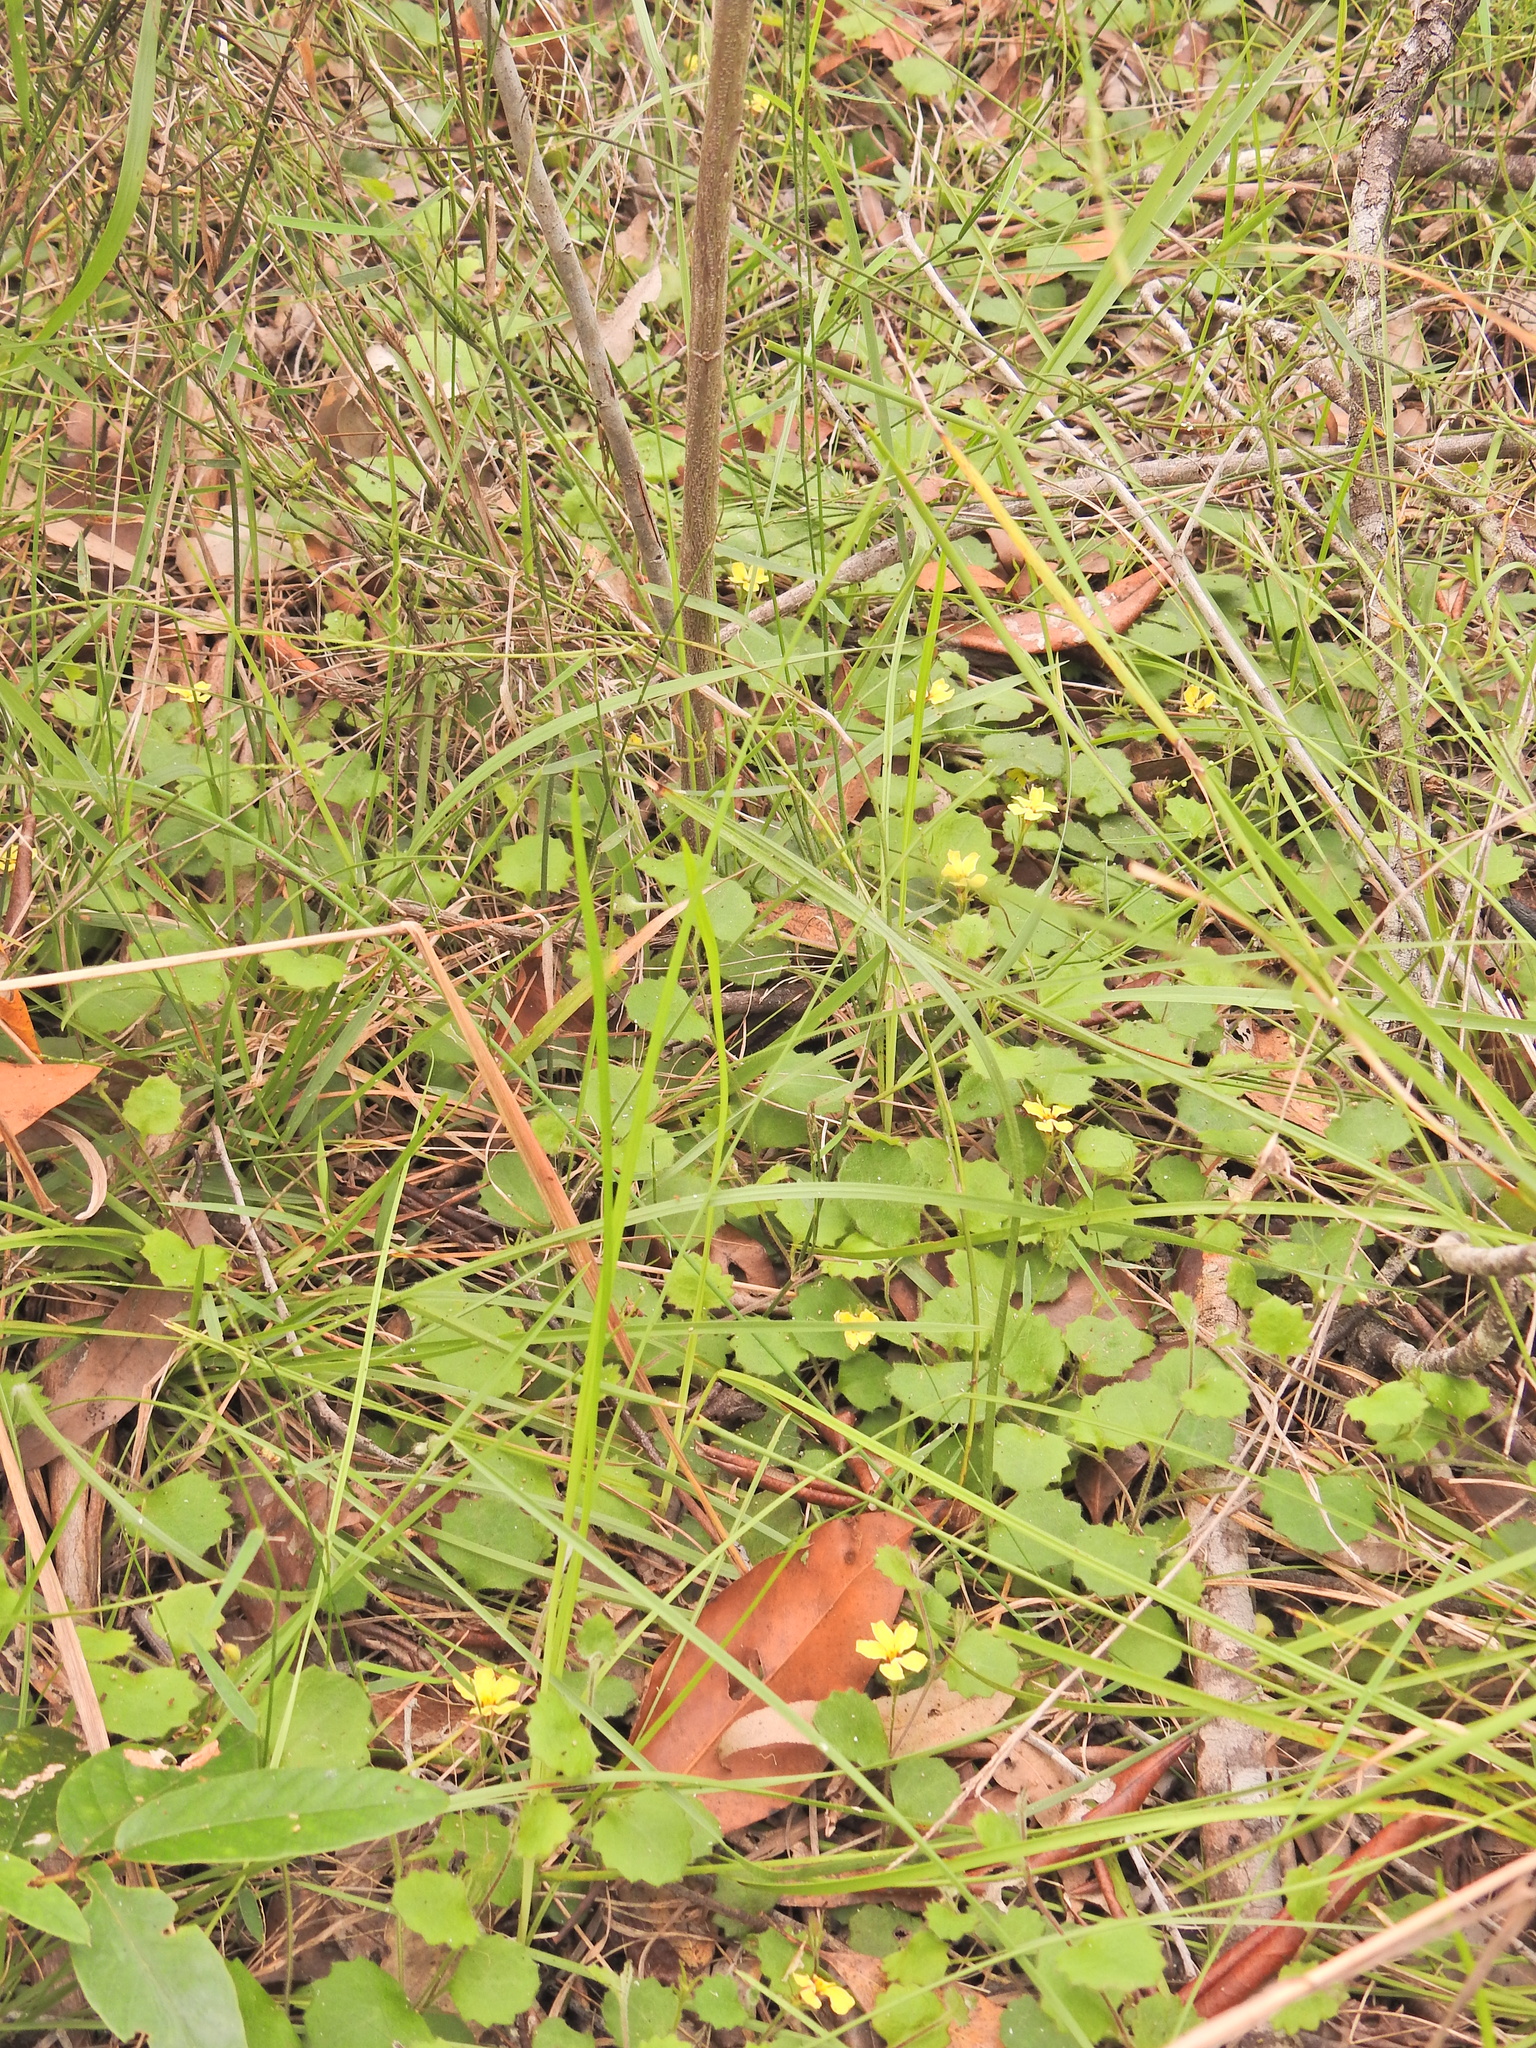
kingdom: Plantae
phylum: Tracheophyta
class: Magnoliopsida
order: Asterales
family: Goodeniaceae
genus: Goodenia
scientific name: Goodenia rotundifolia
